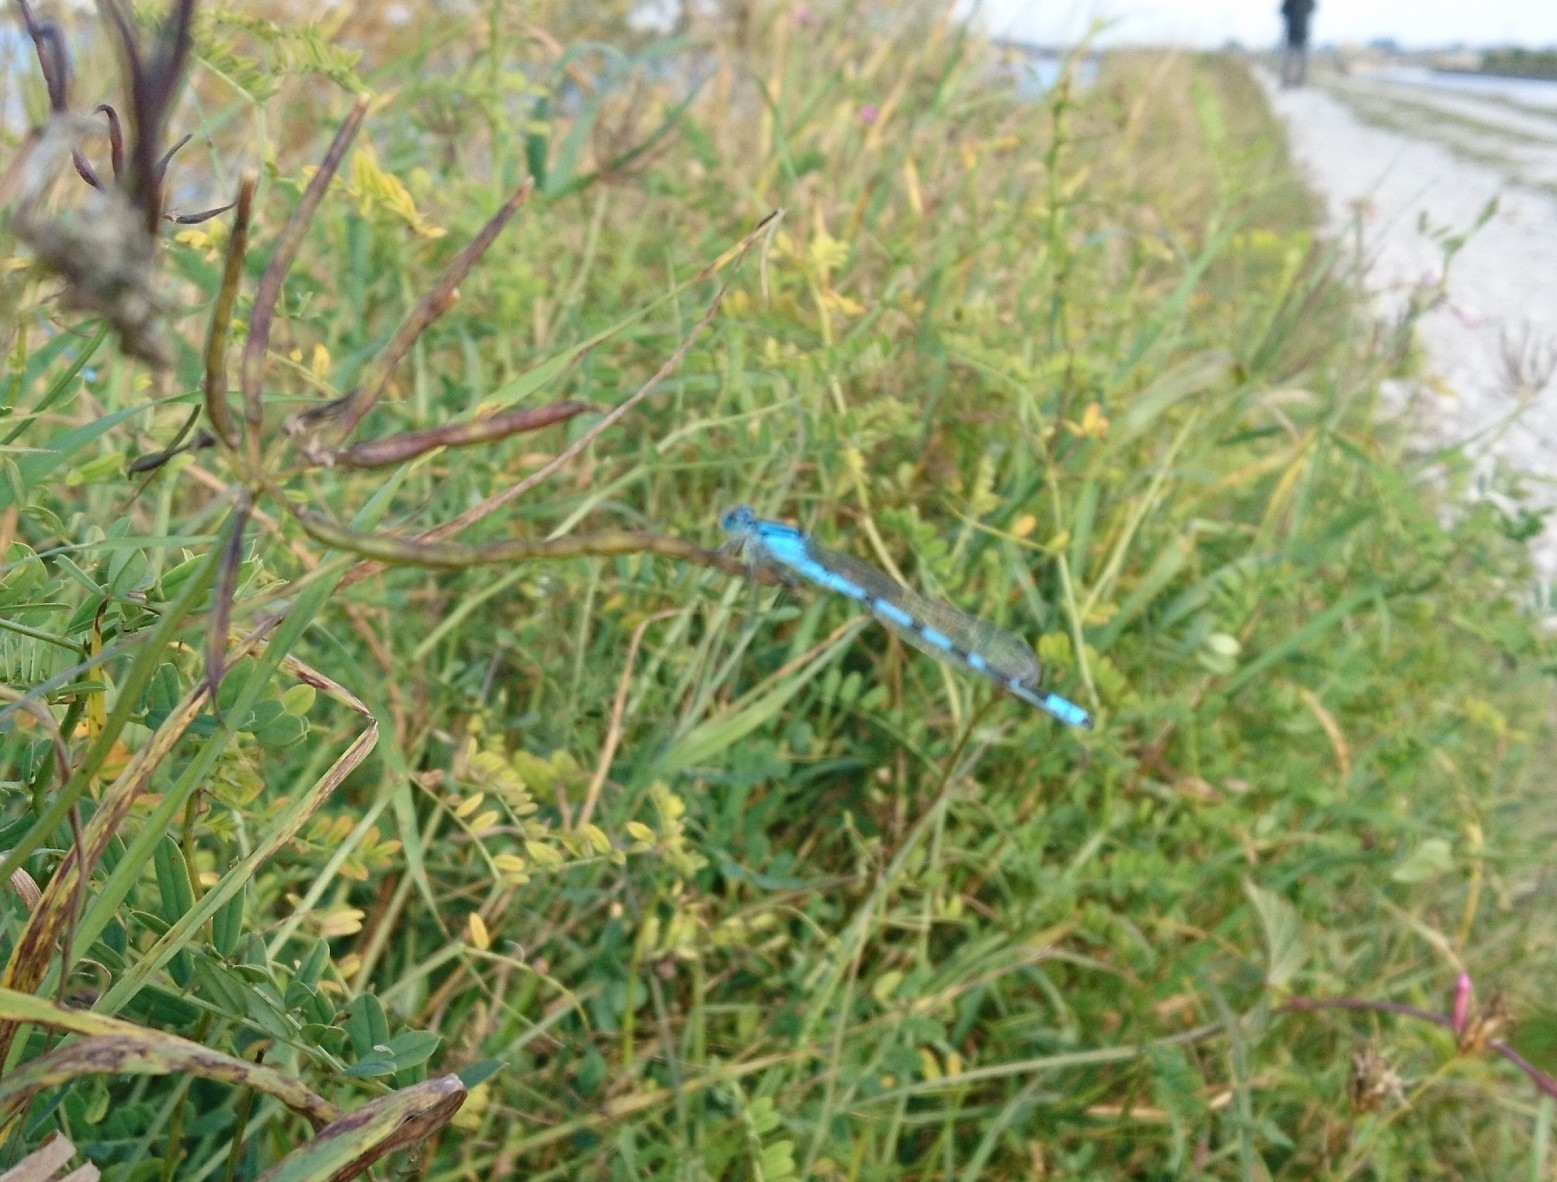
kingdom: Animalia
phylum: Arthropoda
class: Insecta
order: Odonata
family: Coenagrionidae
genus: Enallagma
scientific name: Enallagma cyathigerum
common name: Common blue damselfly
